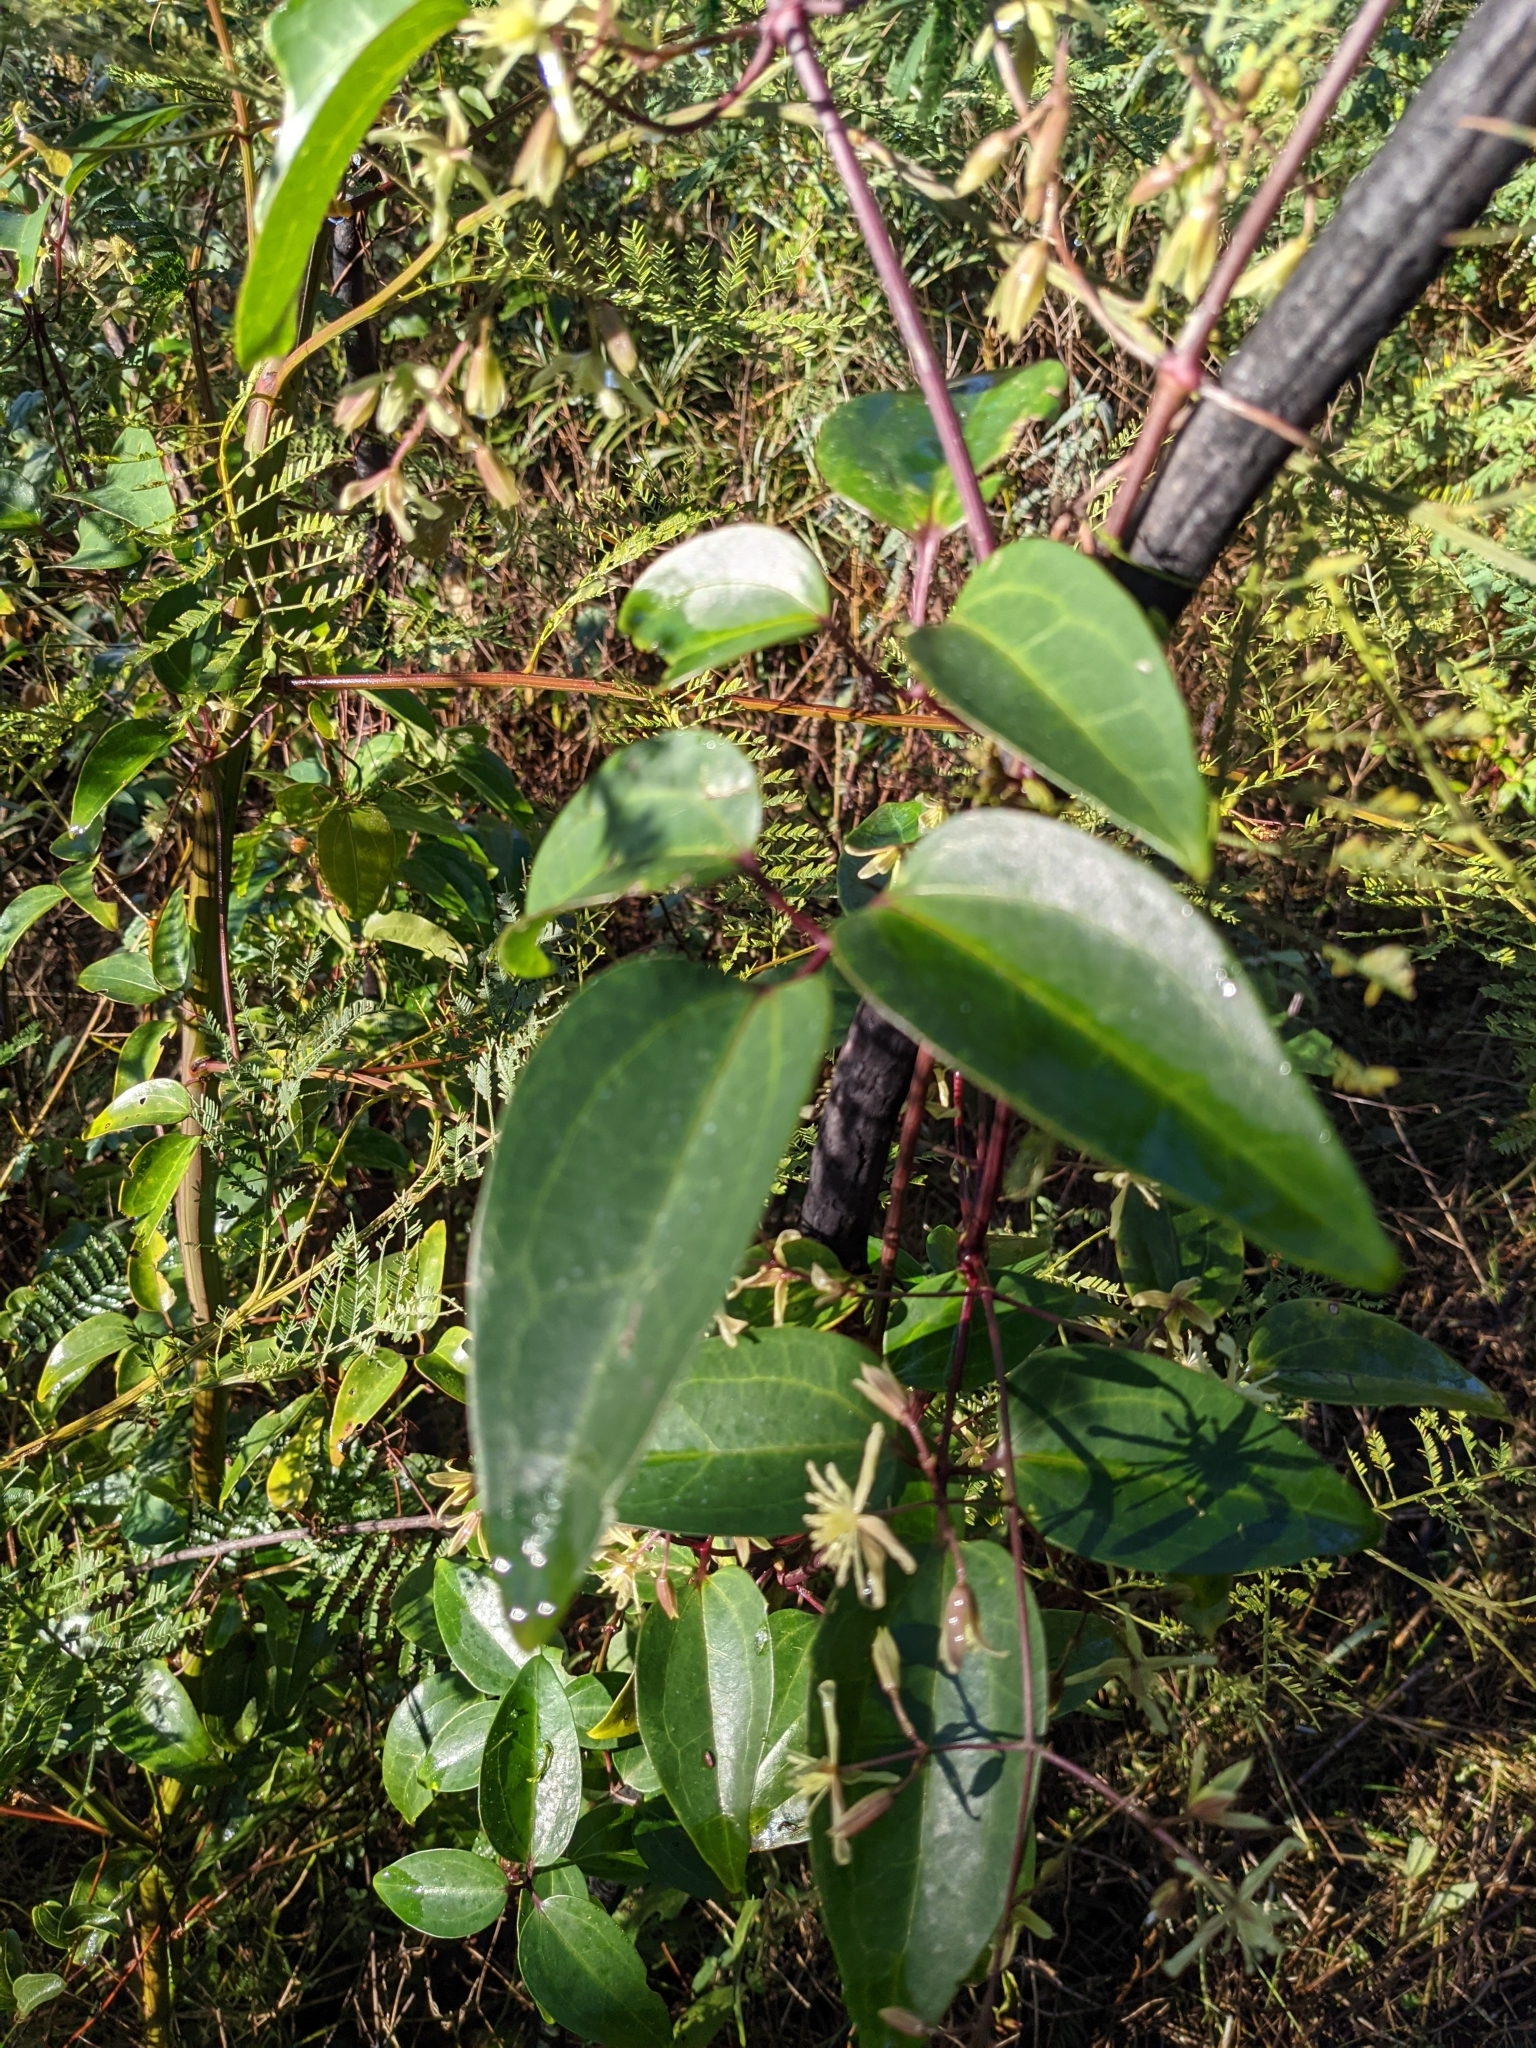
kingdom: Plantae
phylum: Tracheophyta
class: Magnoliopsida
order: Ranunculales
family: Ranunculaceae
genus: Clematis
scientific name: Clematis glycinoides
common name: Forest clematis
